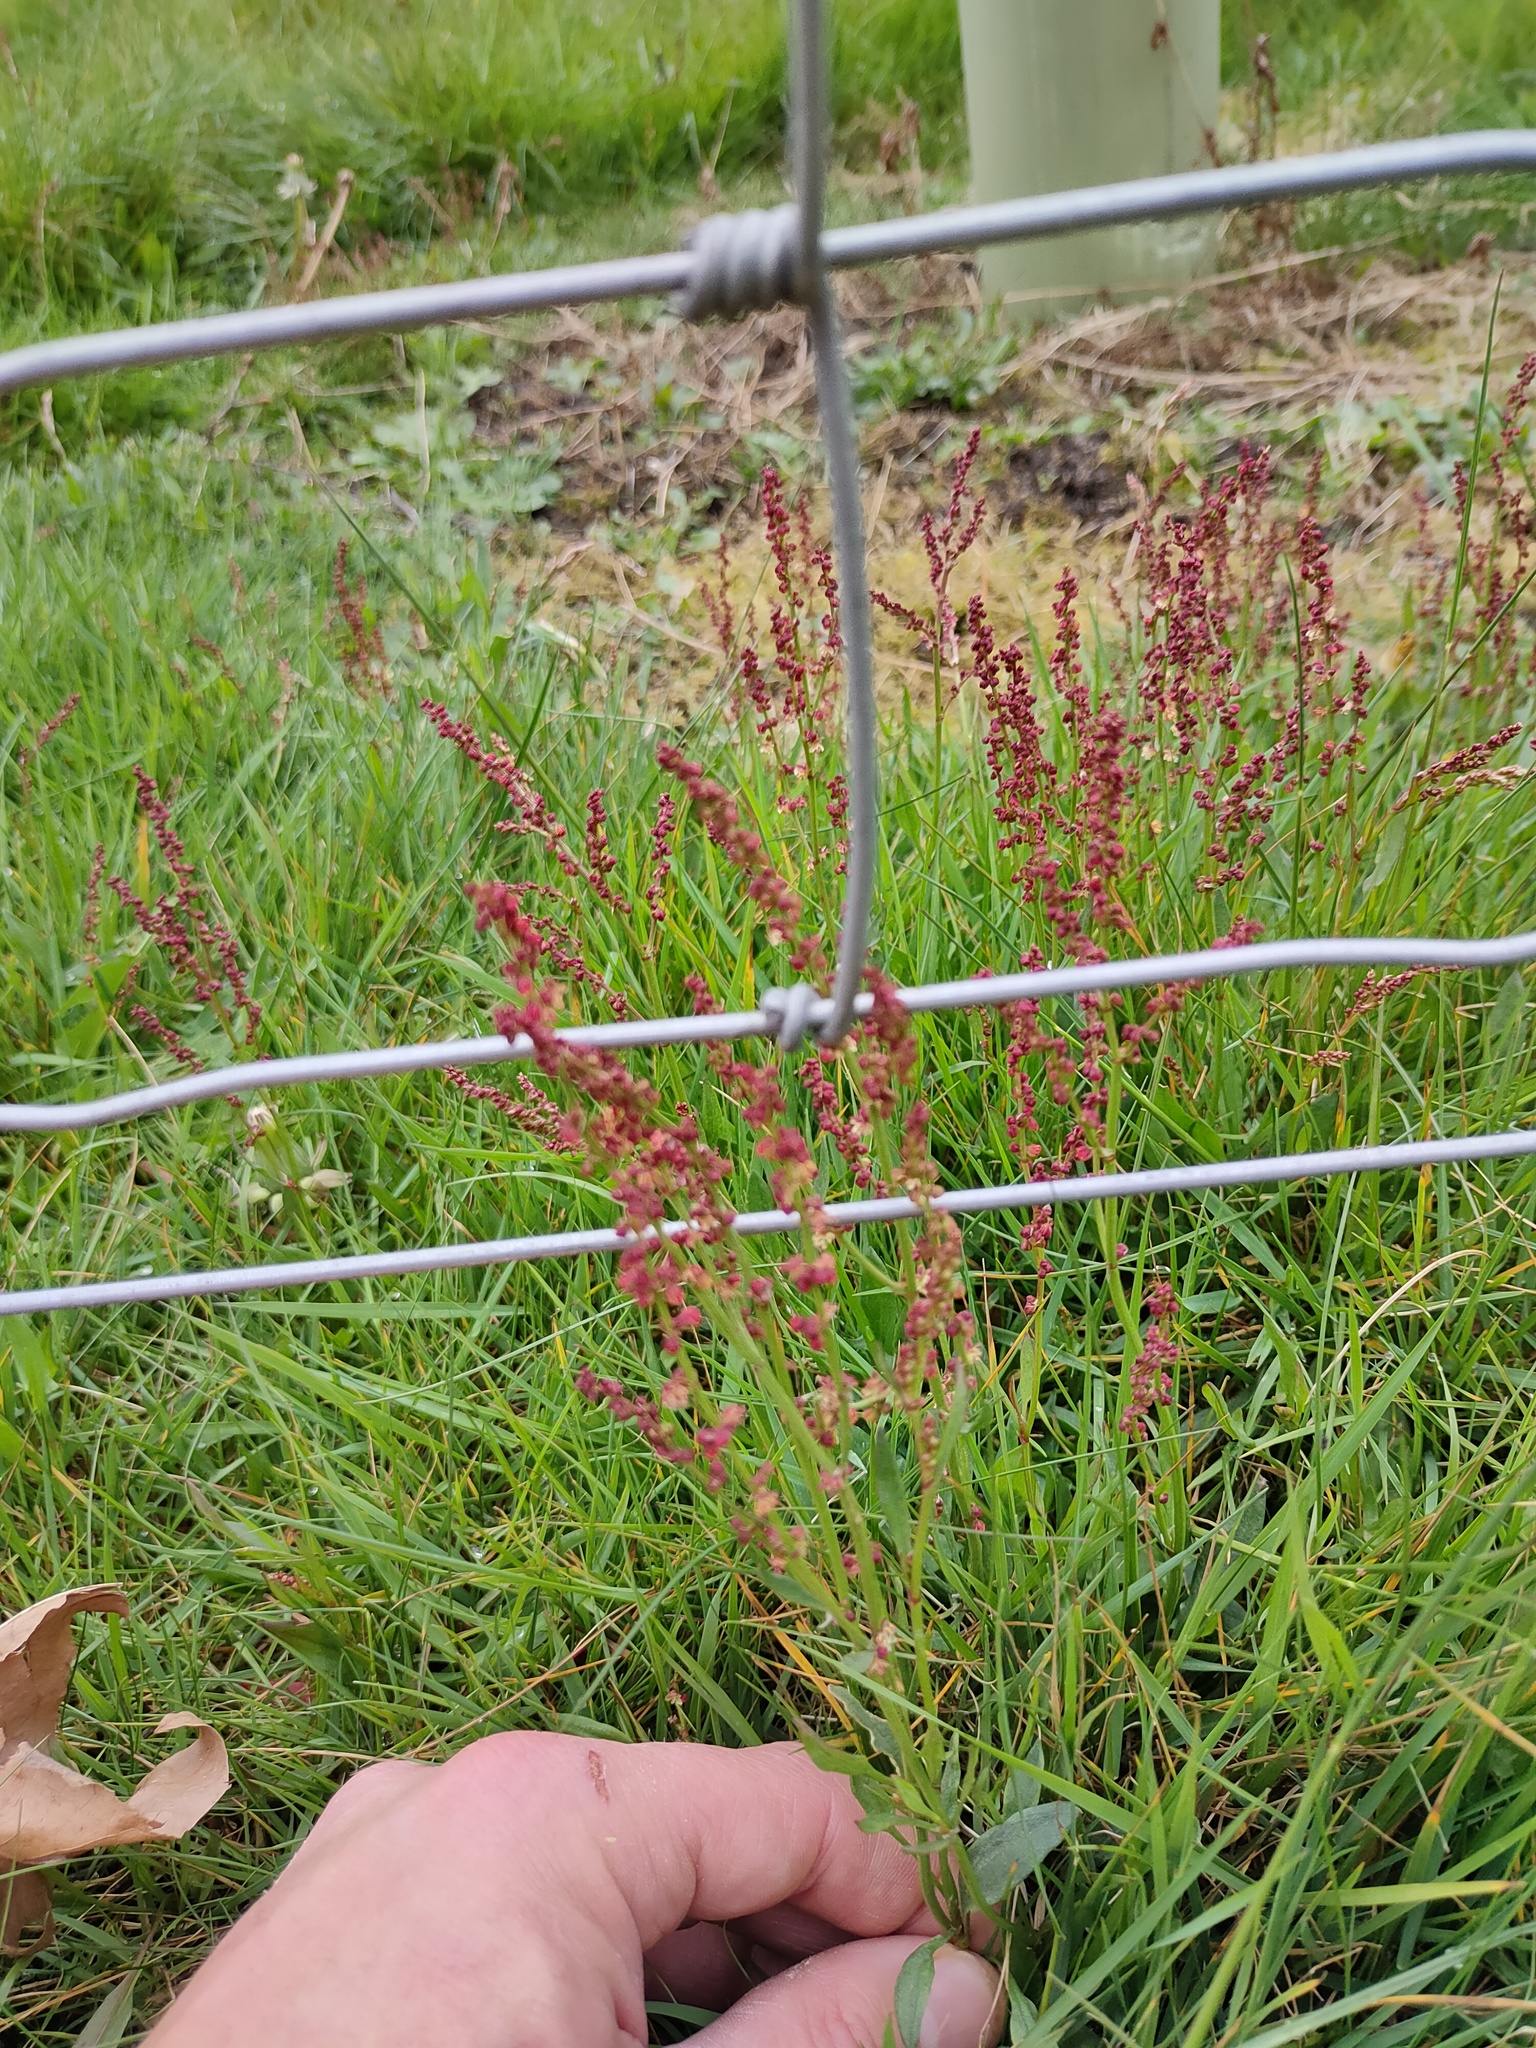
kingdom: Plantae
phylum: Tracheophyta
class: Magnoliopsida
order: Caryophyllales
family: Polygonaceae
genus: Rumex
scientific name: Rumex acetosella
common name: Common sheep sorrel
